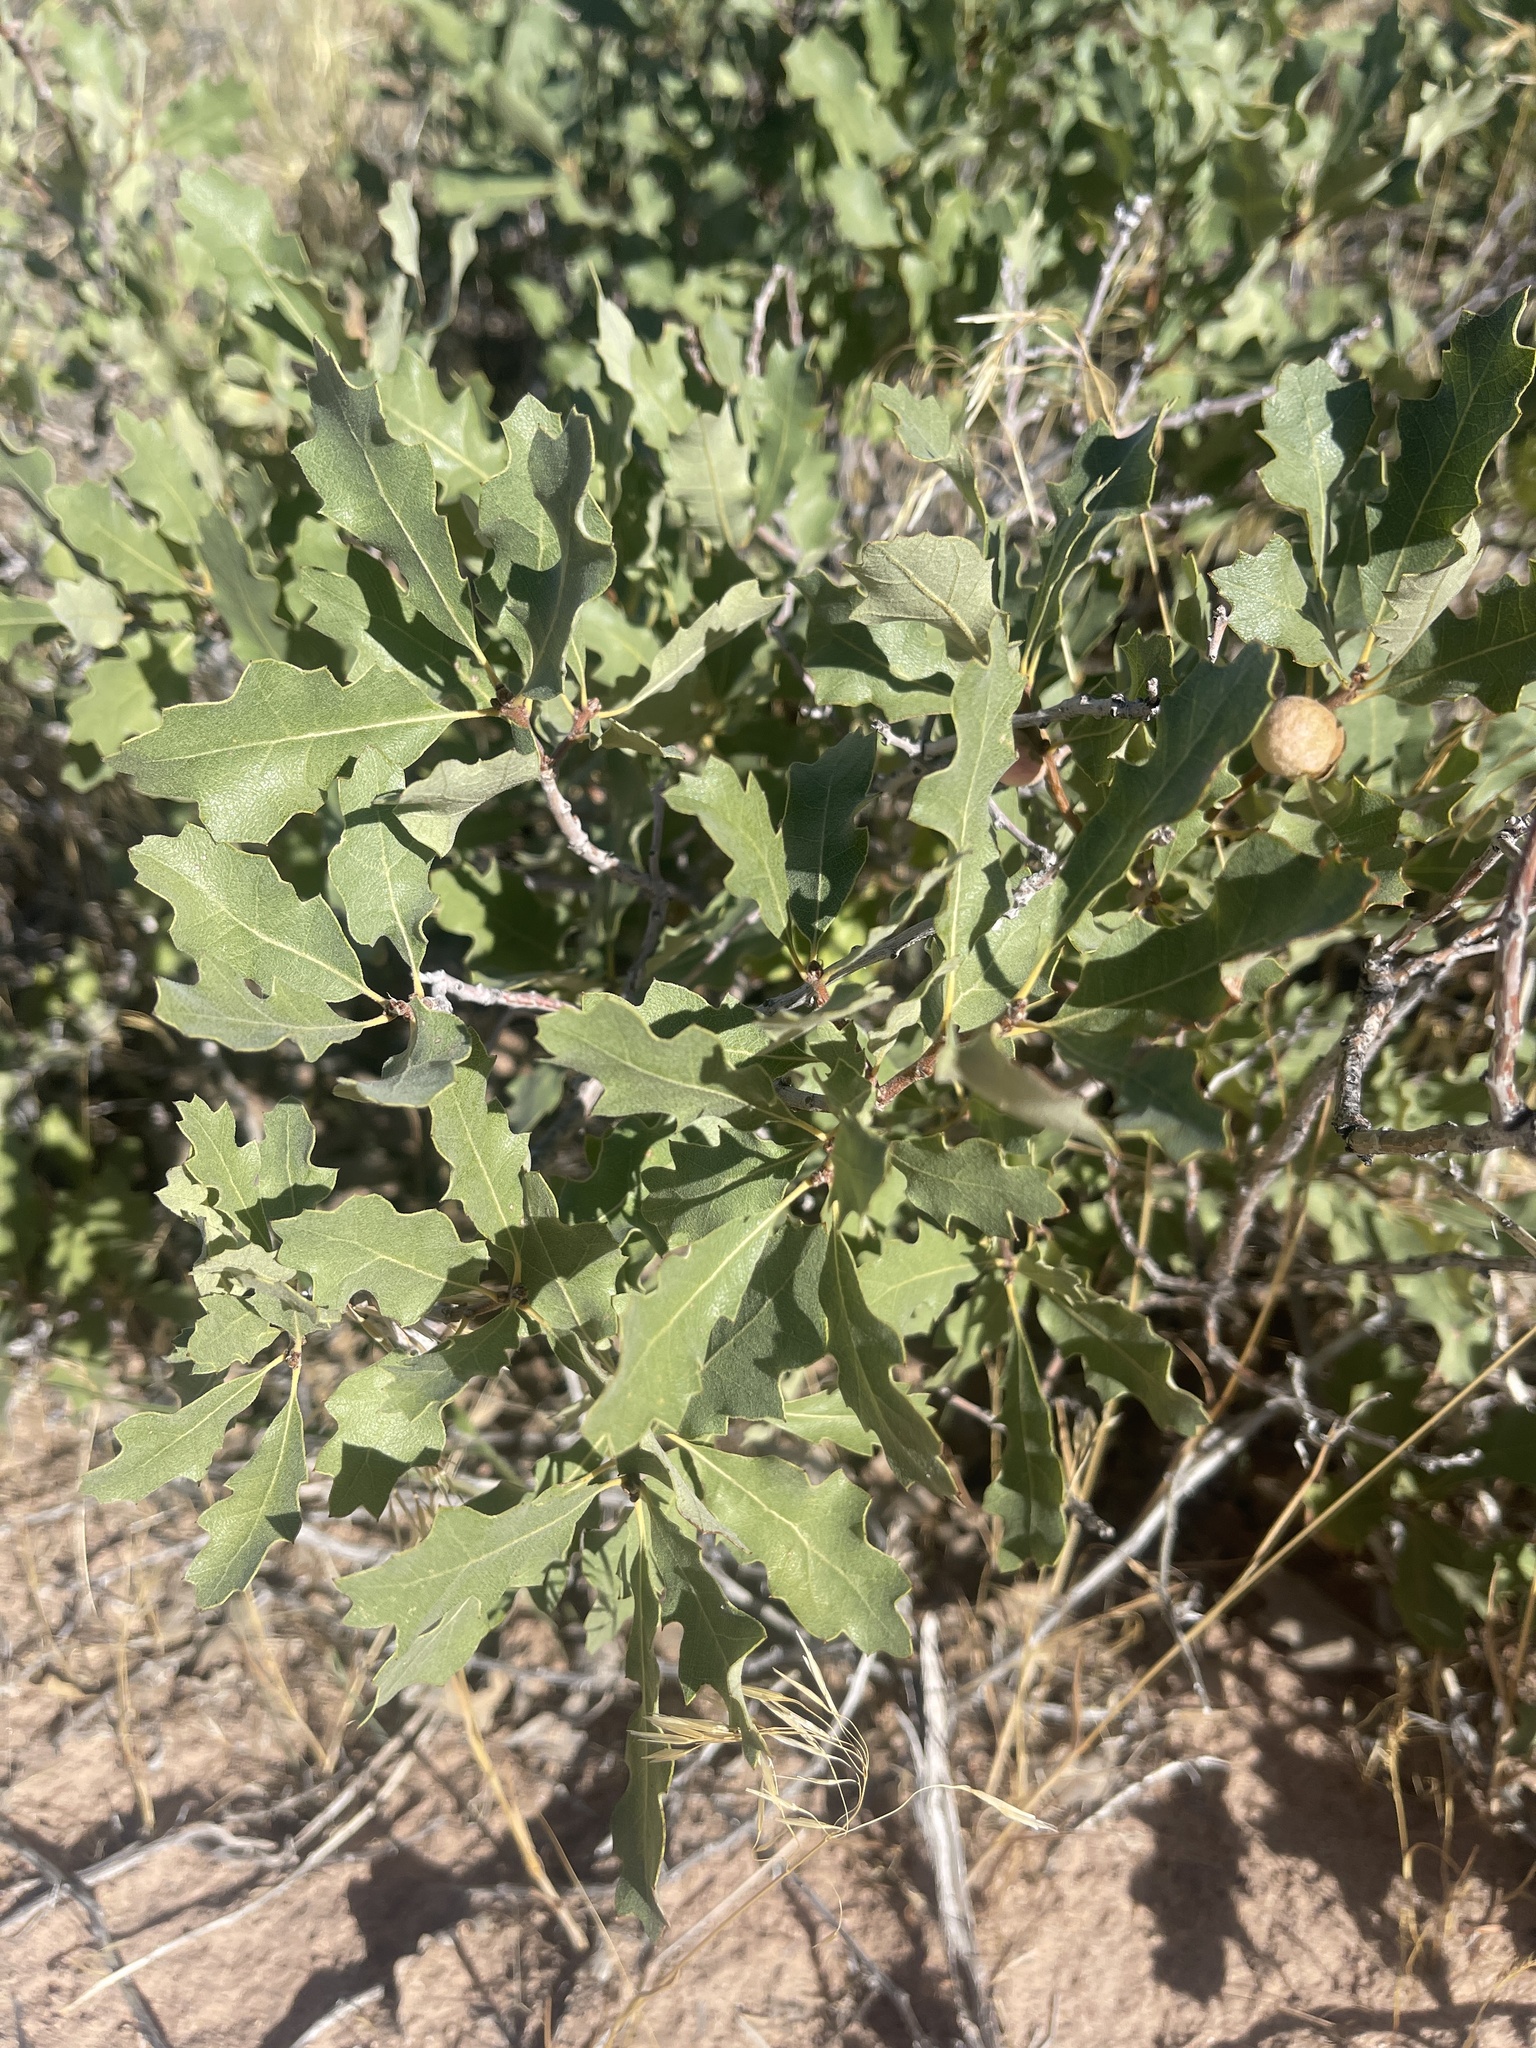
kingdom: Plantae
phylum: Tracheophyta
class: Magnoliopsida
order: Fagales
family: Fagaceae
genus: Quercus
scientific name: Quercus welshii
